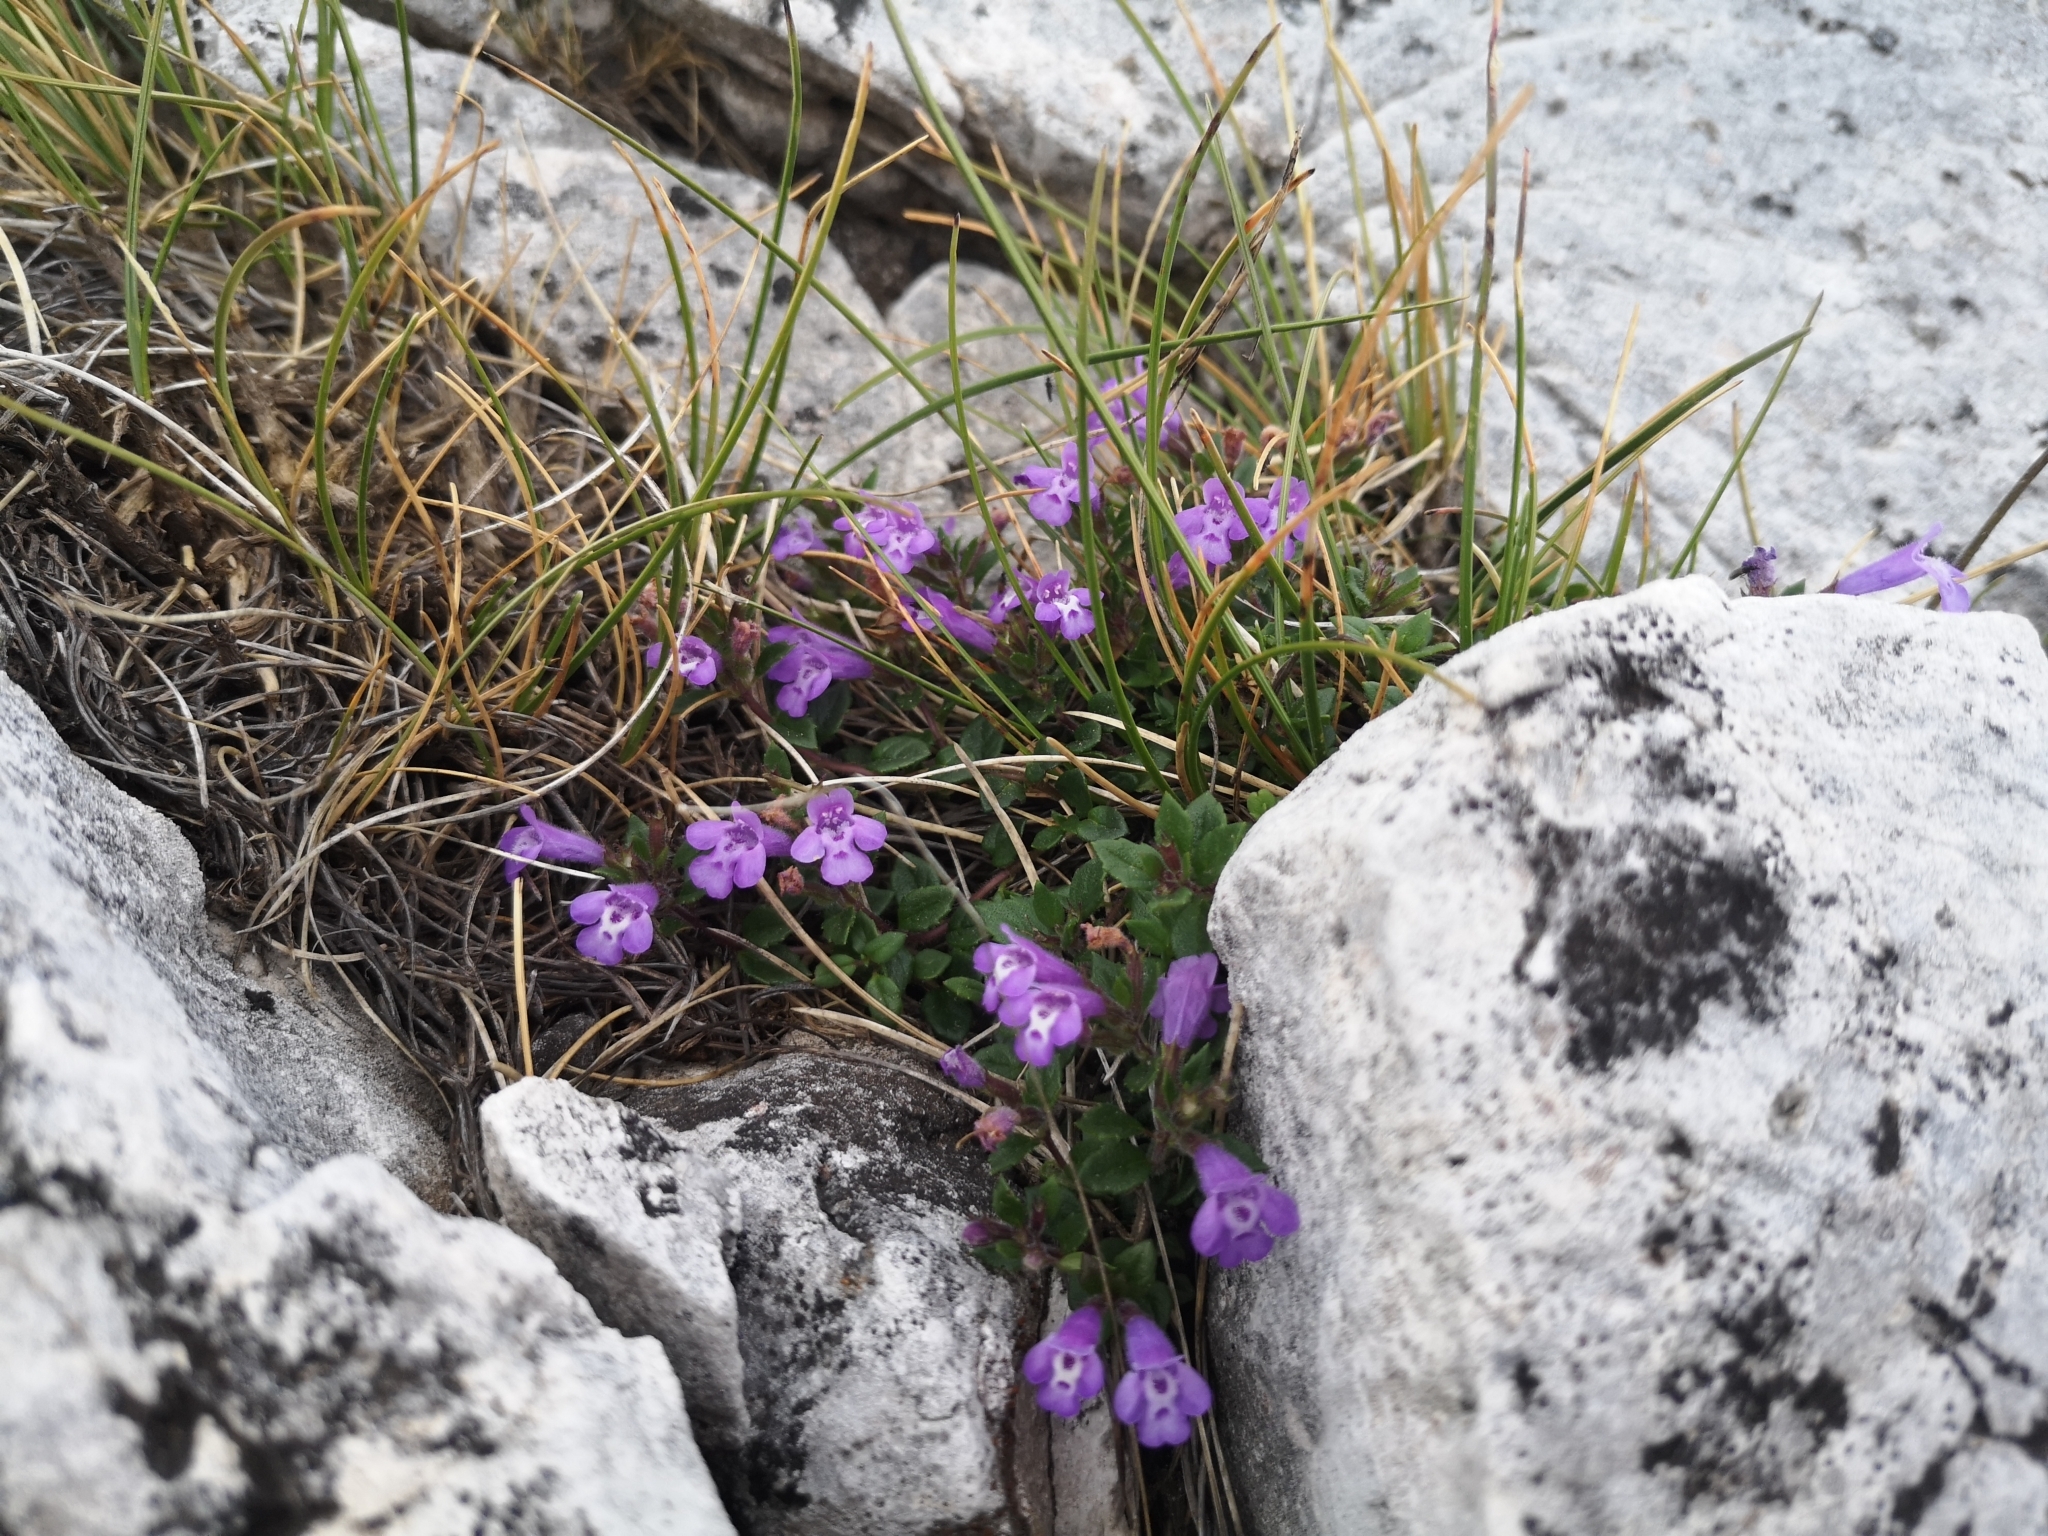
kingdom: Plantae
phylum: Tracheophyta
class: Magnoliopsida
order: Lamiales
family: Lamiaceae
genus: Clinopodium
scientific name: Clinopodium alpinum
